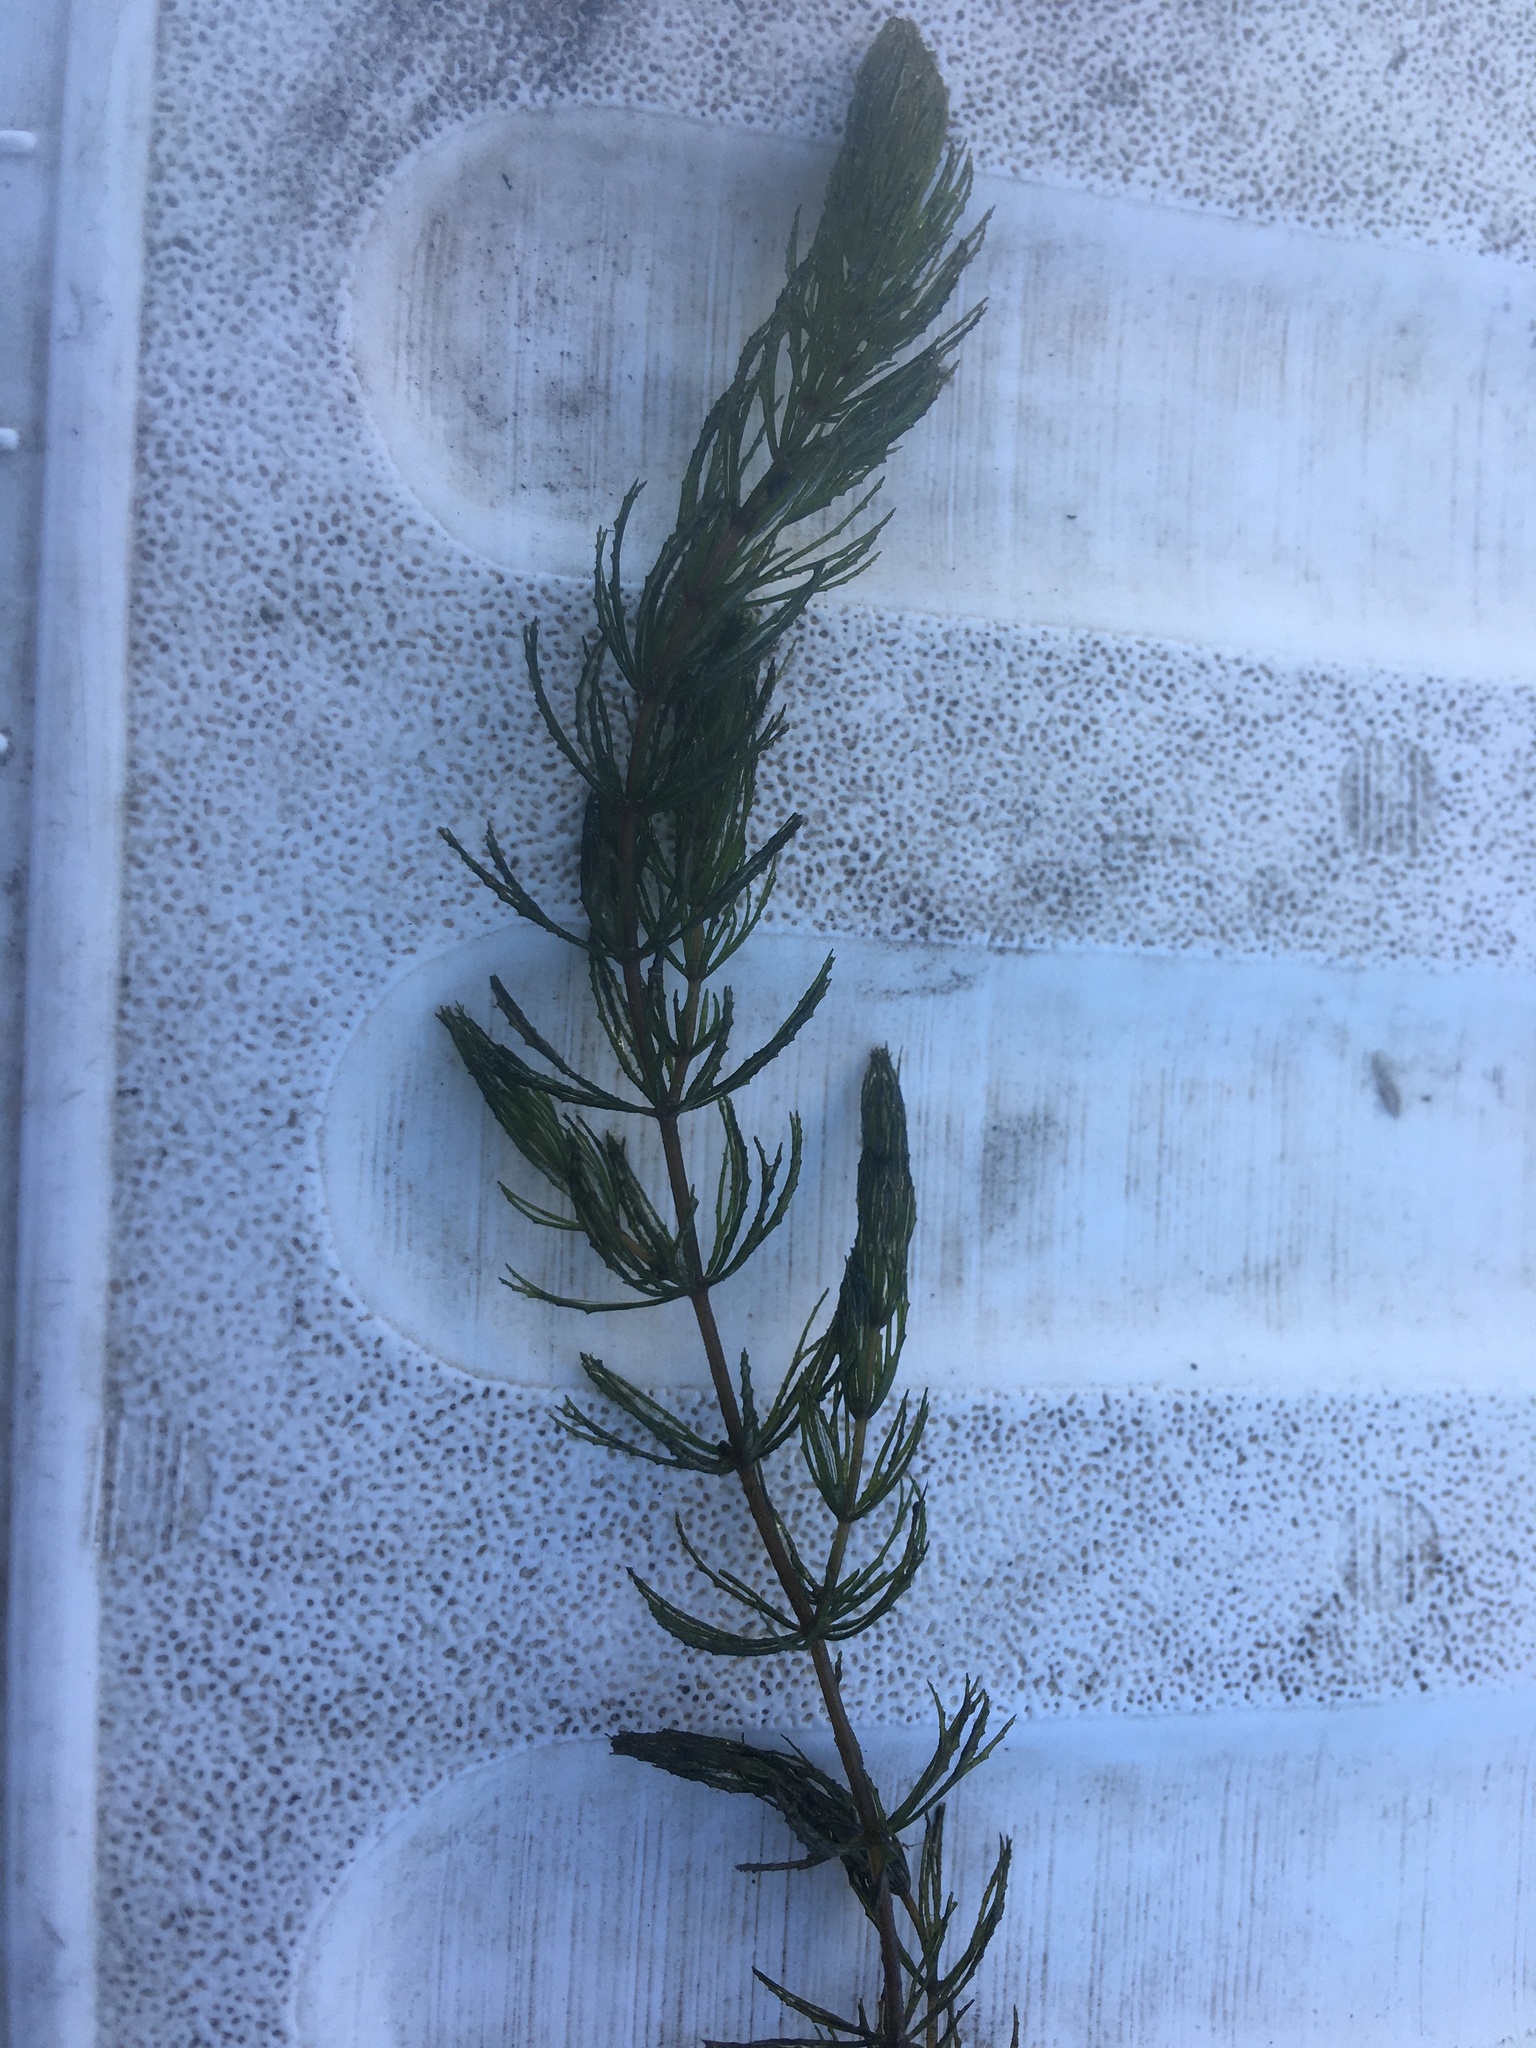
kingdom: Plantae
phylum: Tracheophyta
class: Magnoliopsida
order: Ceratophyllales
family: Ceratophyllaceae
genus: Ceratophyllum
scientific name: Ceratophyllum demersum
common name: Rigid hornwort
